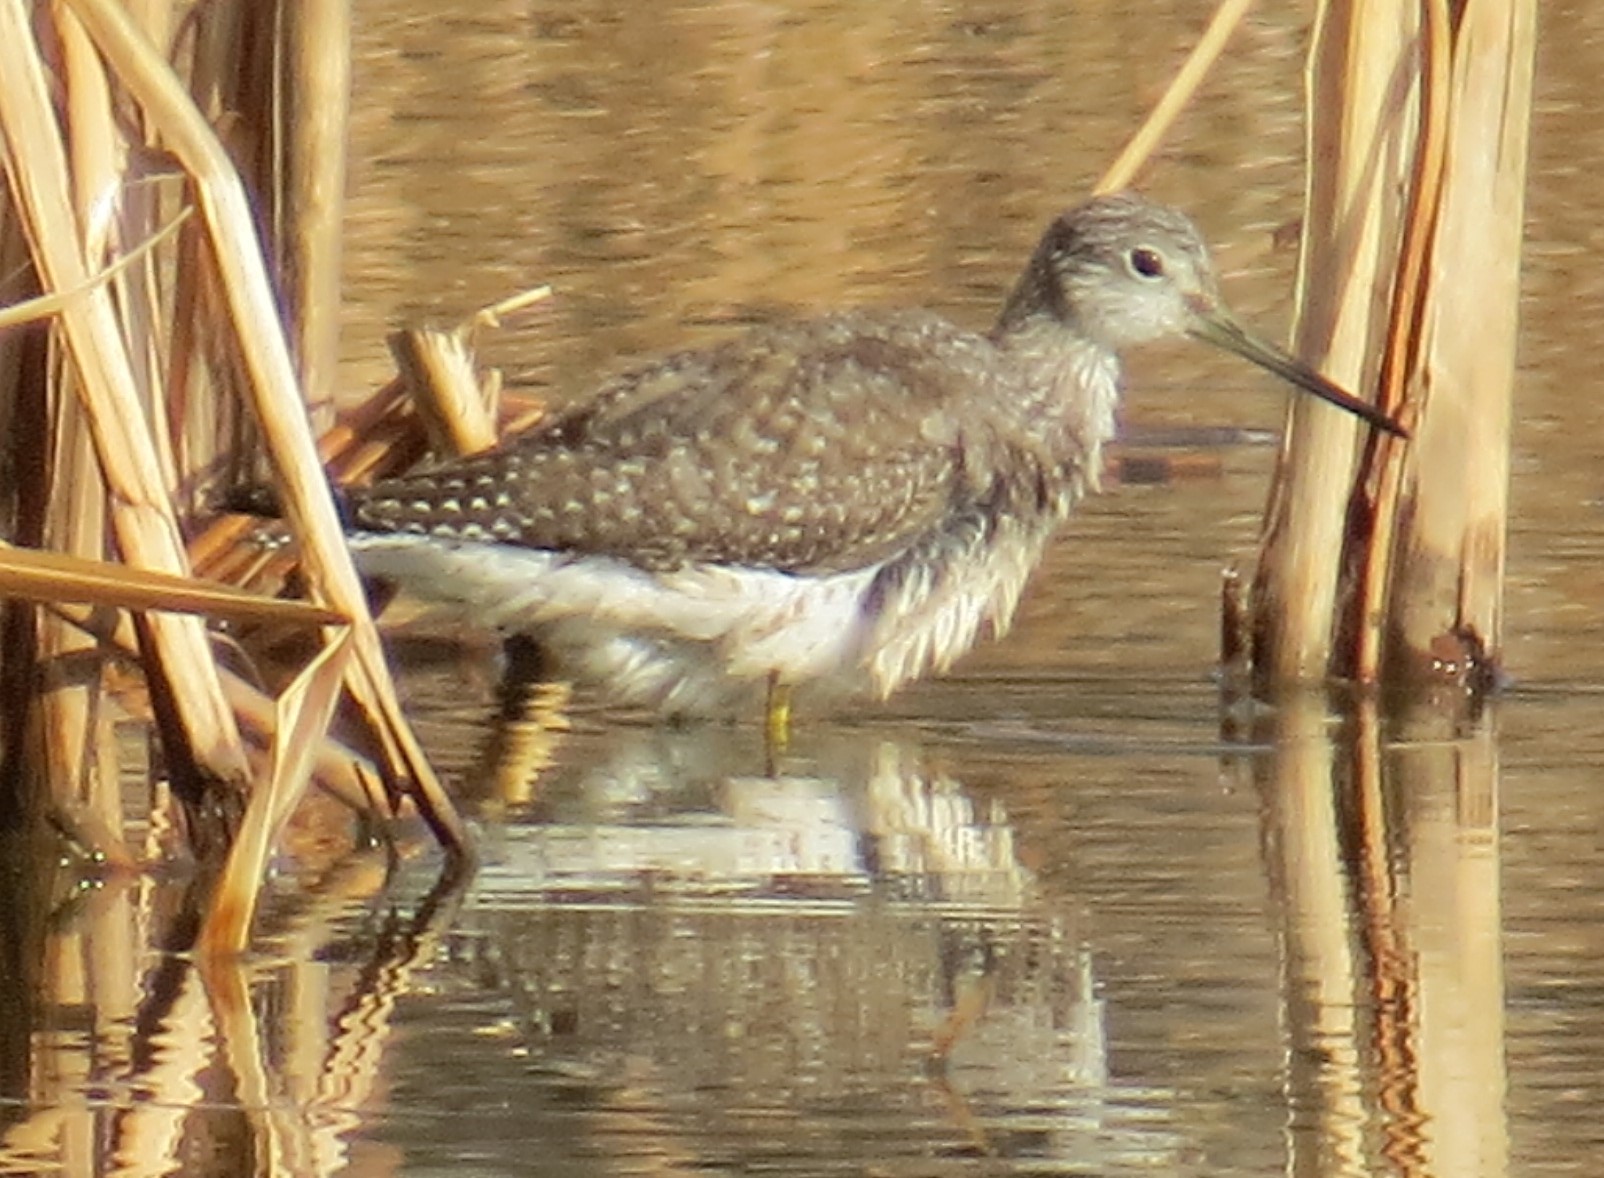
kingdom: Animalia
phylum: Chordata
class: Aves
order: Charadriiformes
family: Scolopacidae
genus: Tringa
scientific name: Tringa melanoleuca
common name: Greater yellowlegs
